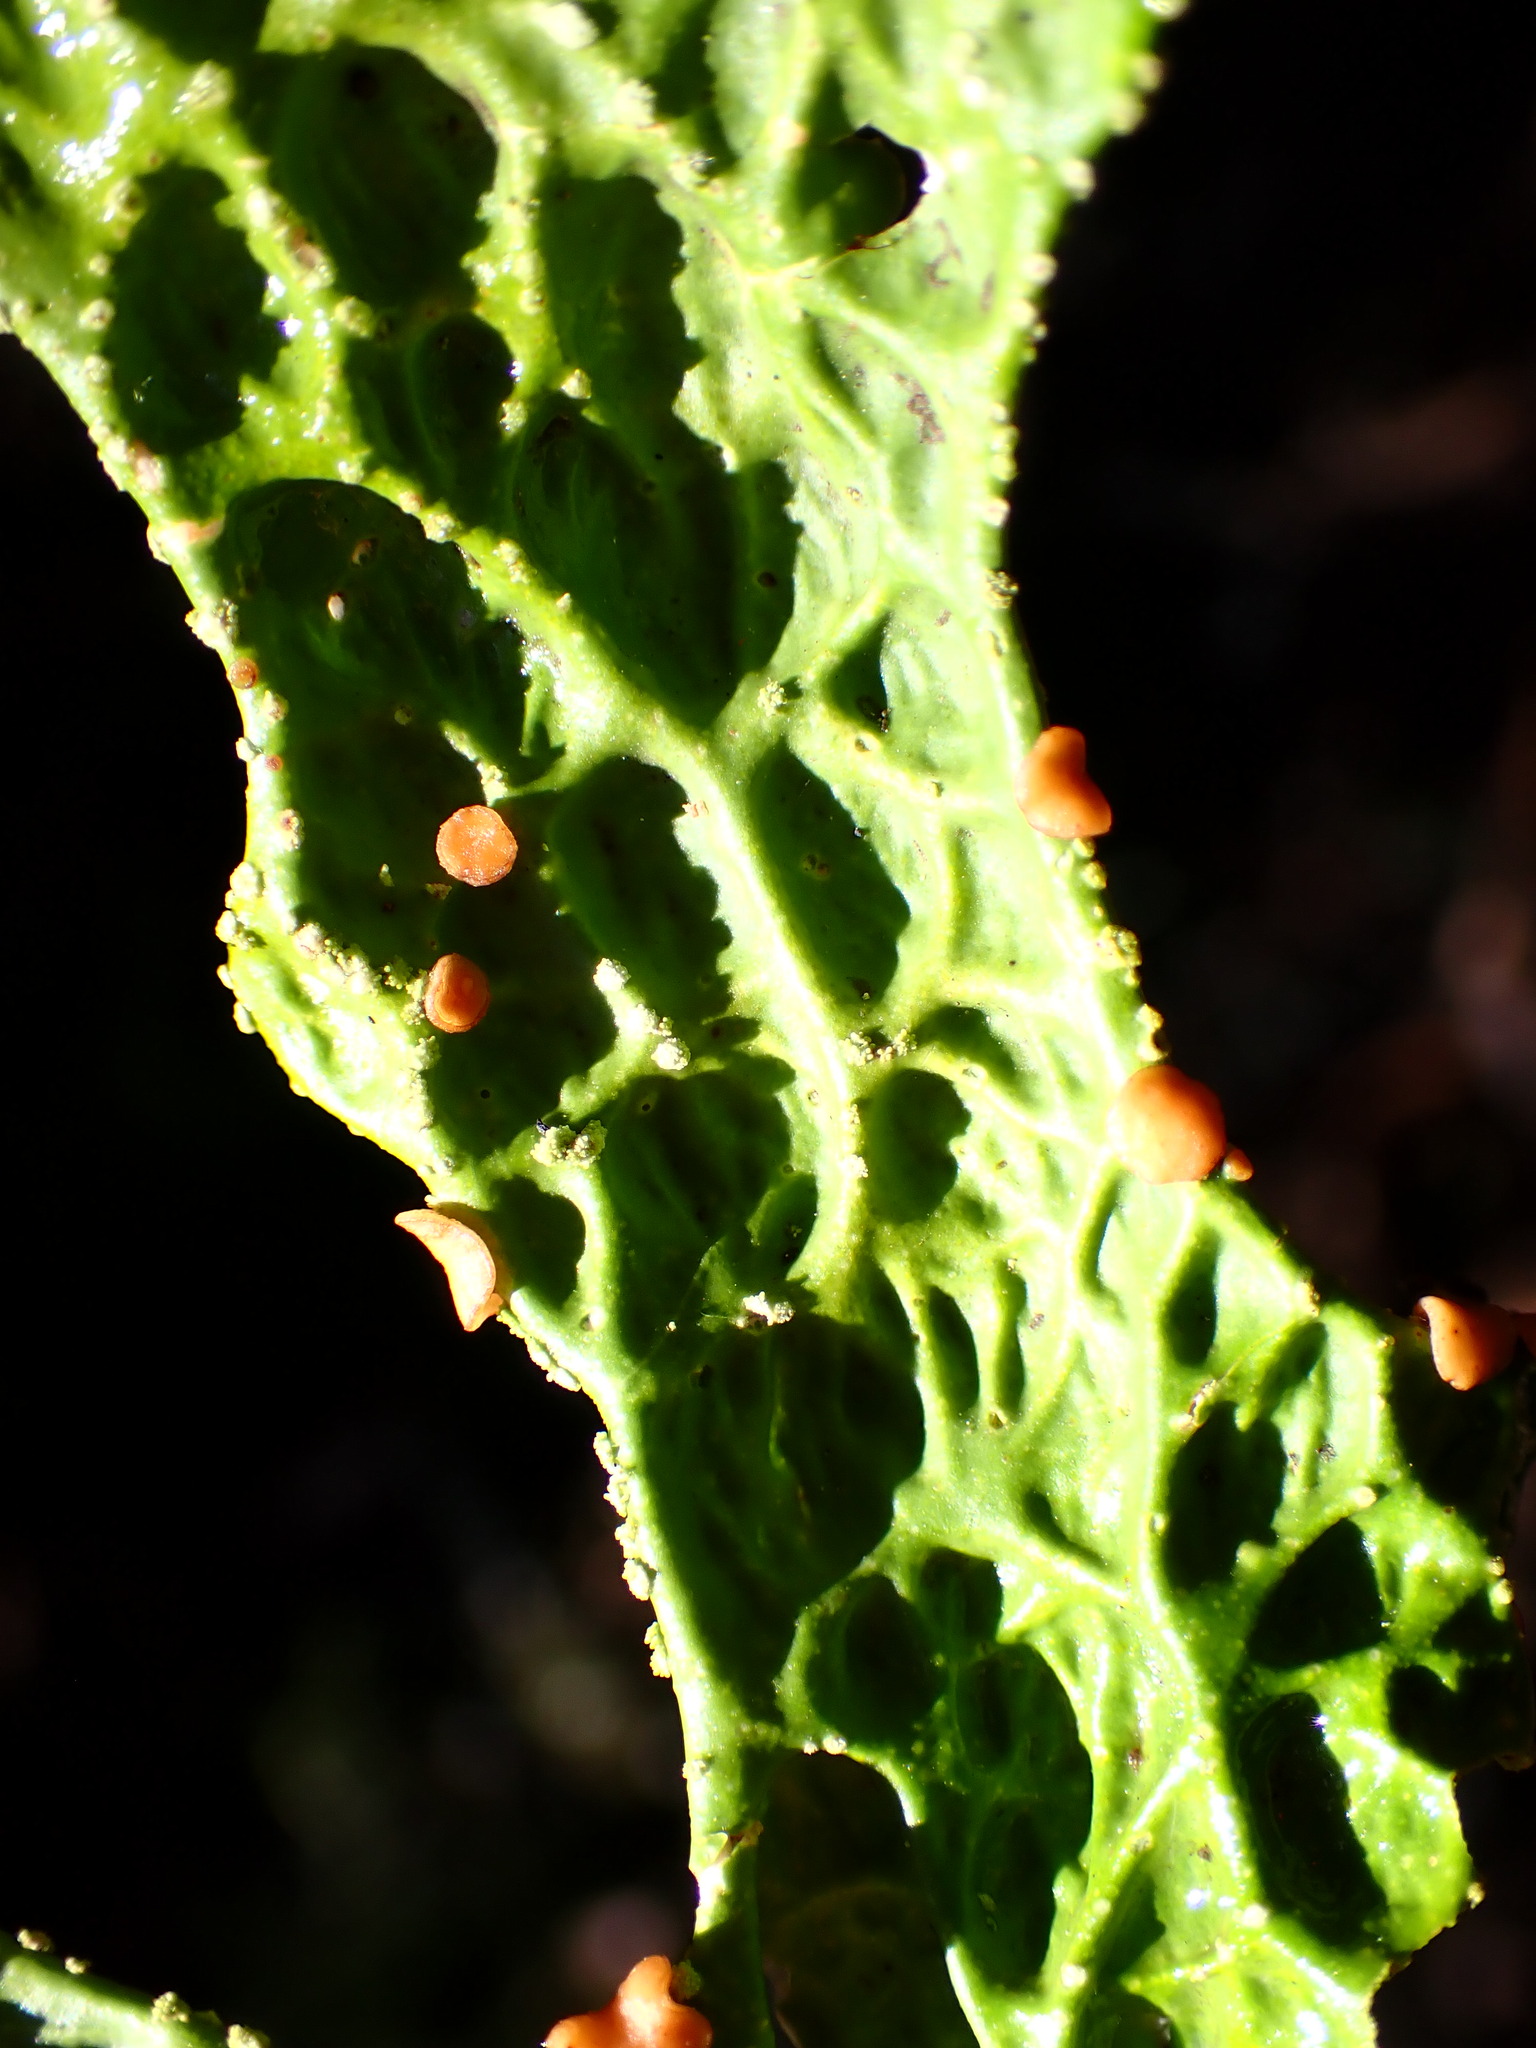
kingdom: Fungi
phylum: Ascomycota
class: Lecanoromycetes
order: Peltigerales
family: Lobariaceae
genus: Lobaria
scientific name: Lobaria pulmonaria
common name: Lungwort
